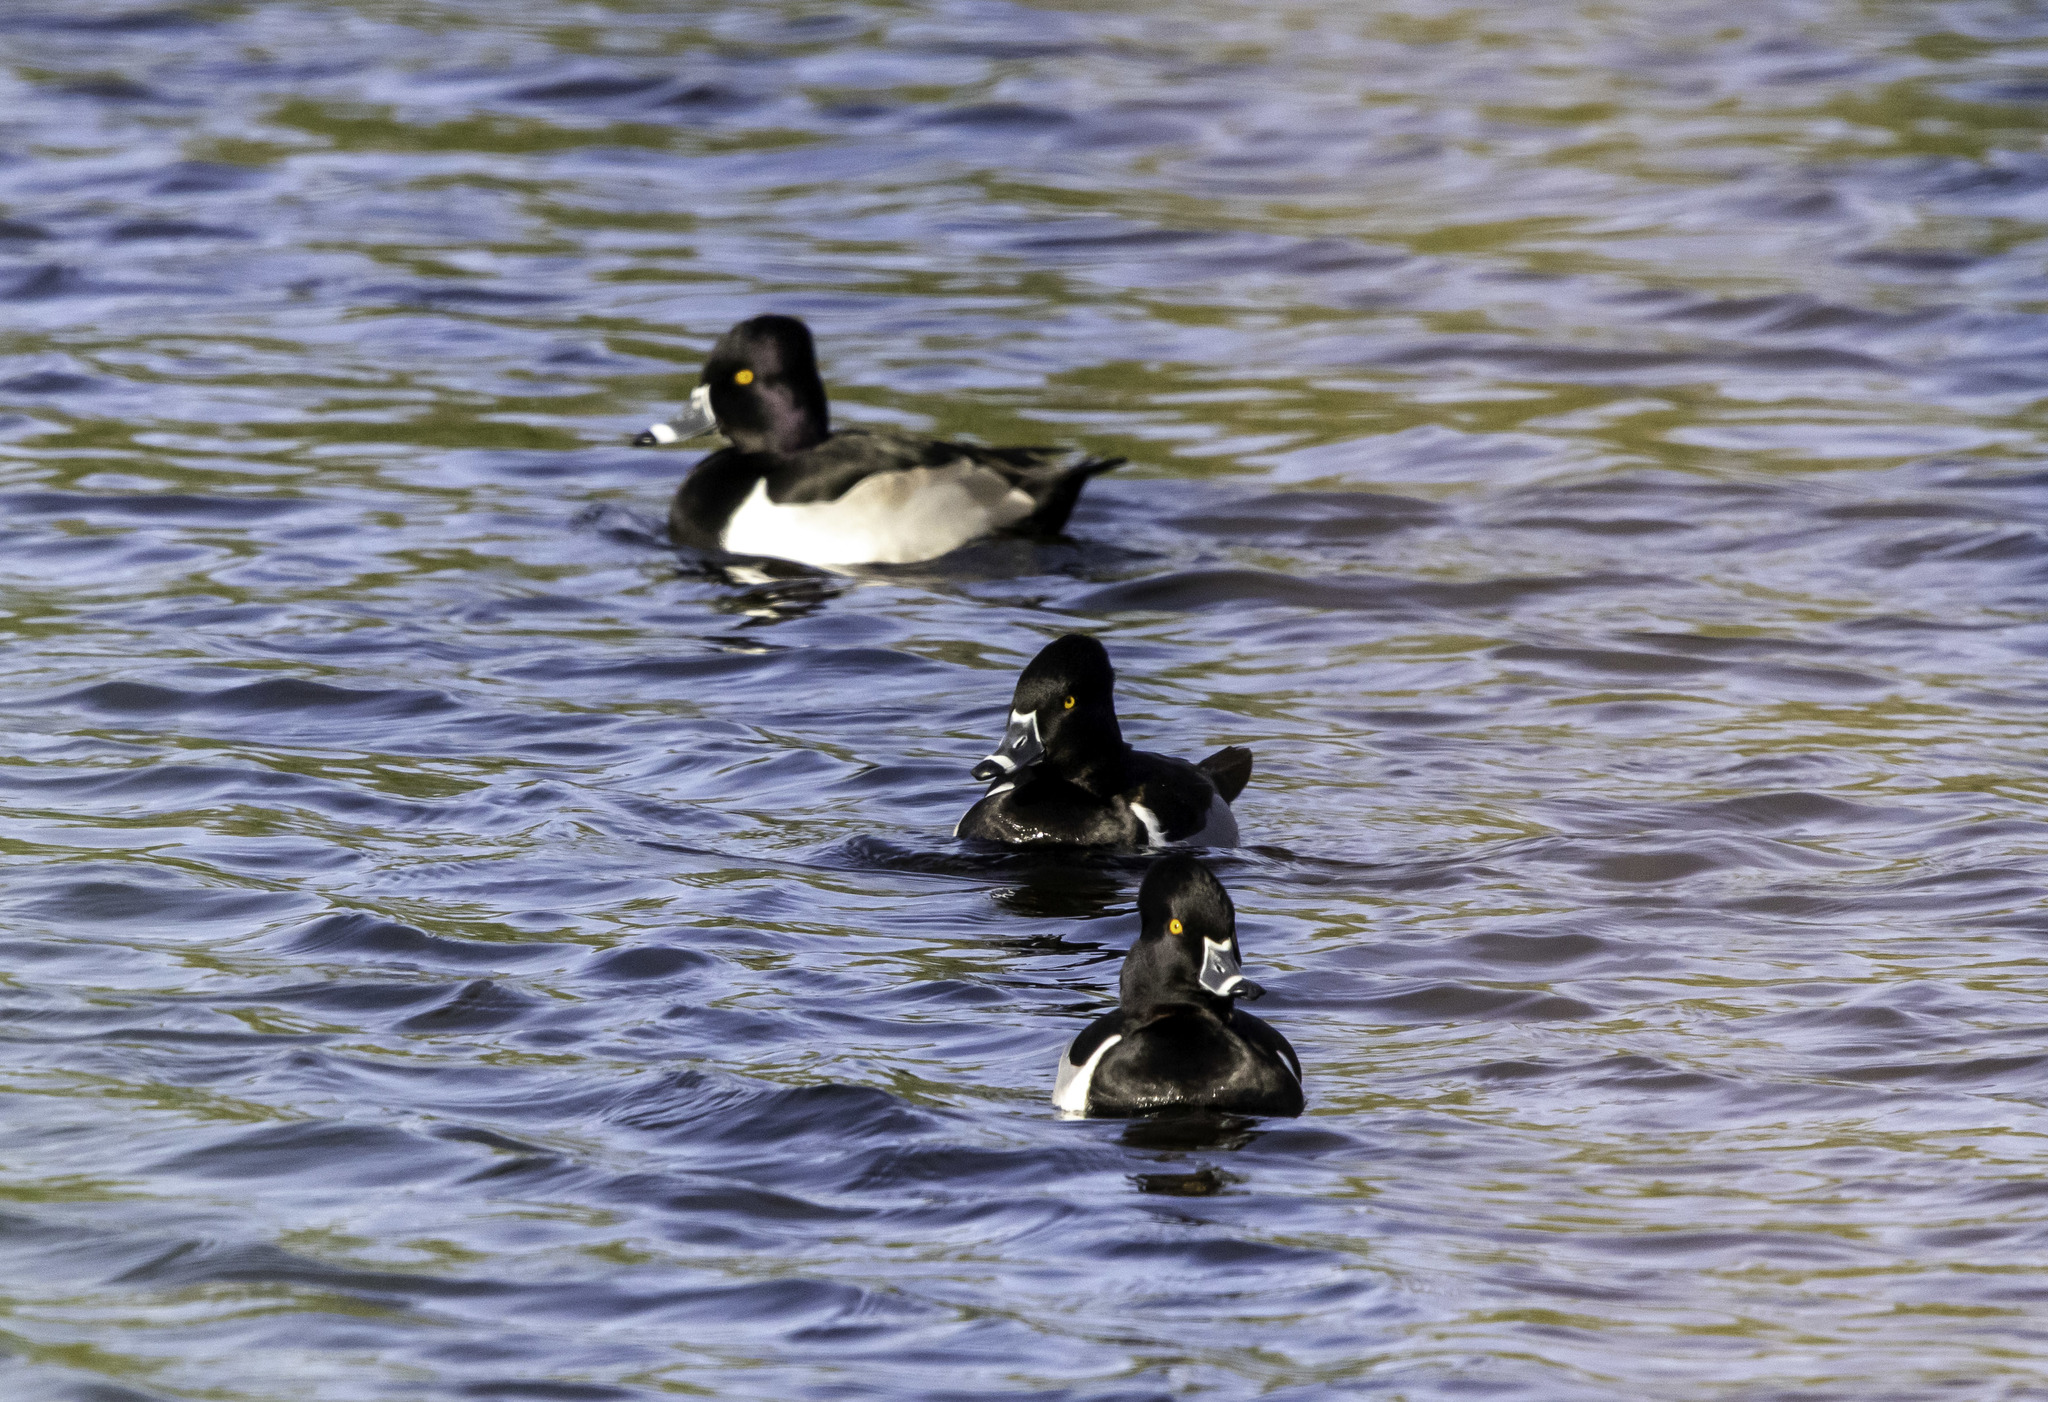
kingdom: Animalia
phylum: Chordata
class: Aves
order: Anseriformes
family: Anatidae
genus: Aythya
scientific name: Aythya collaris
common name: Ring-necked duck
